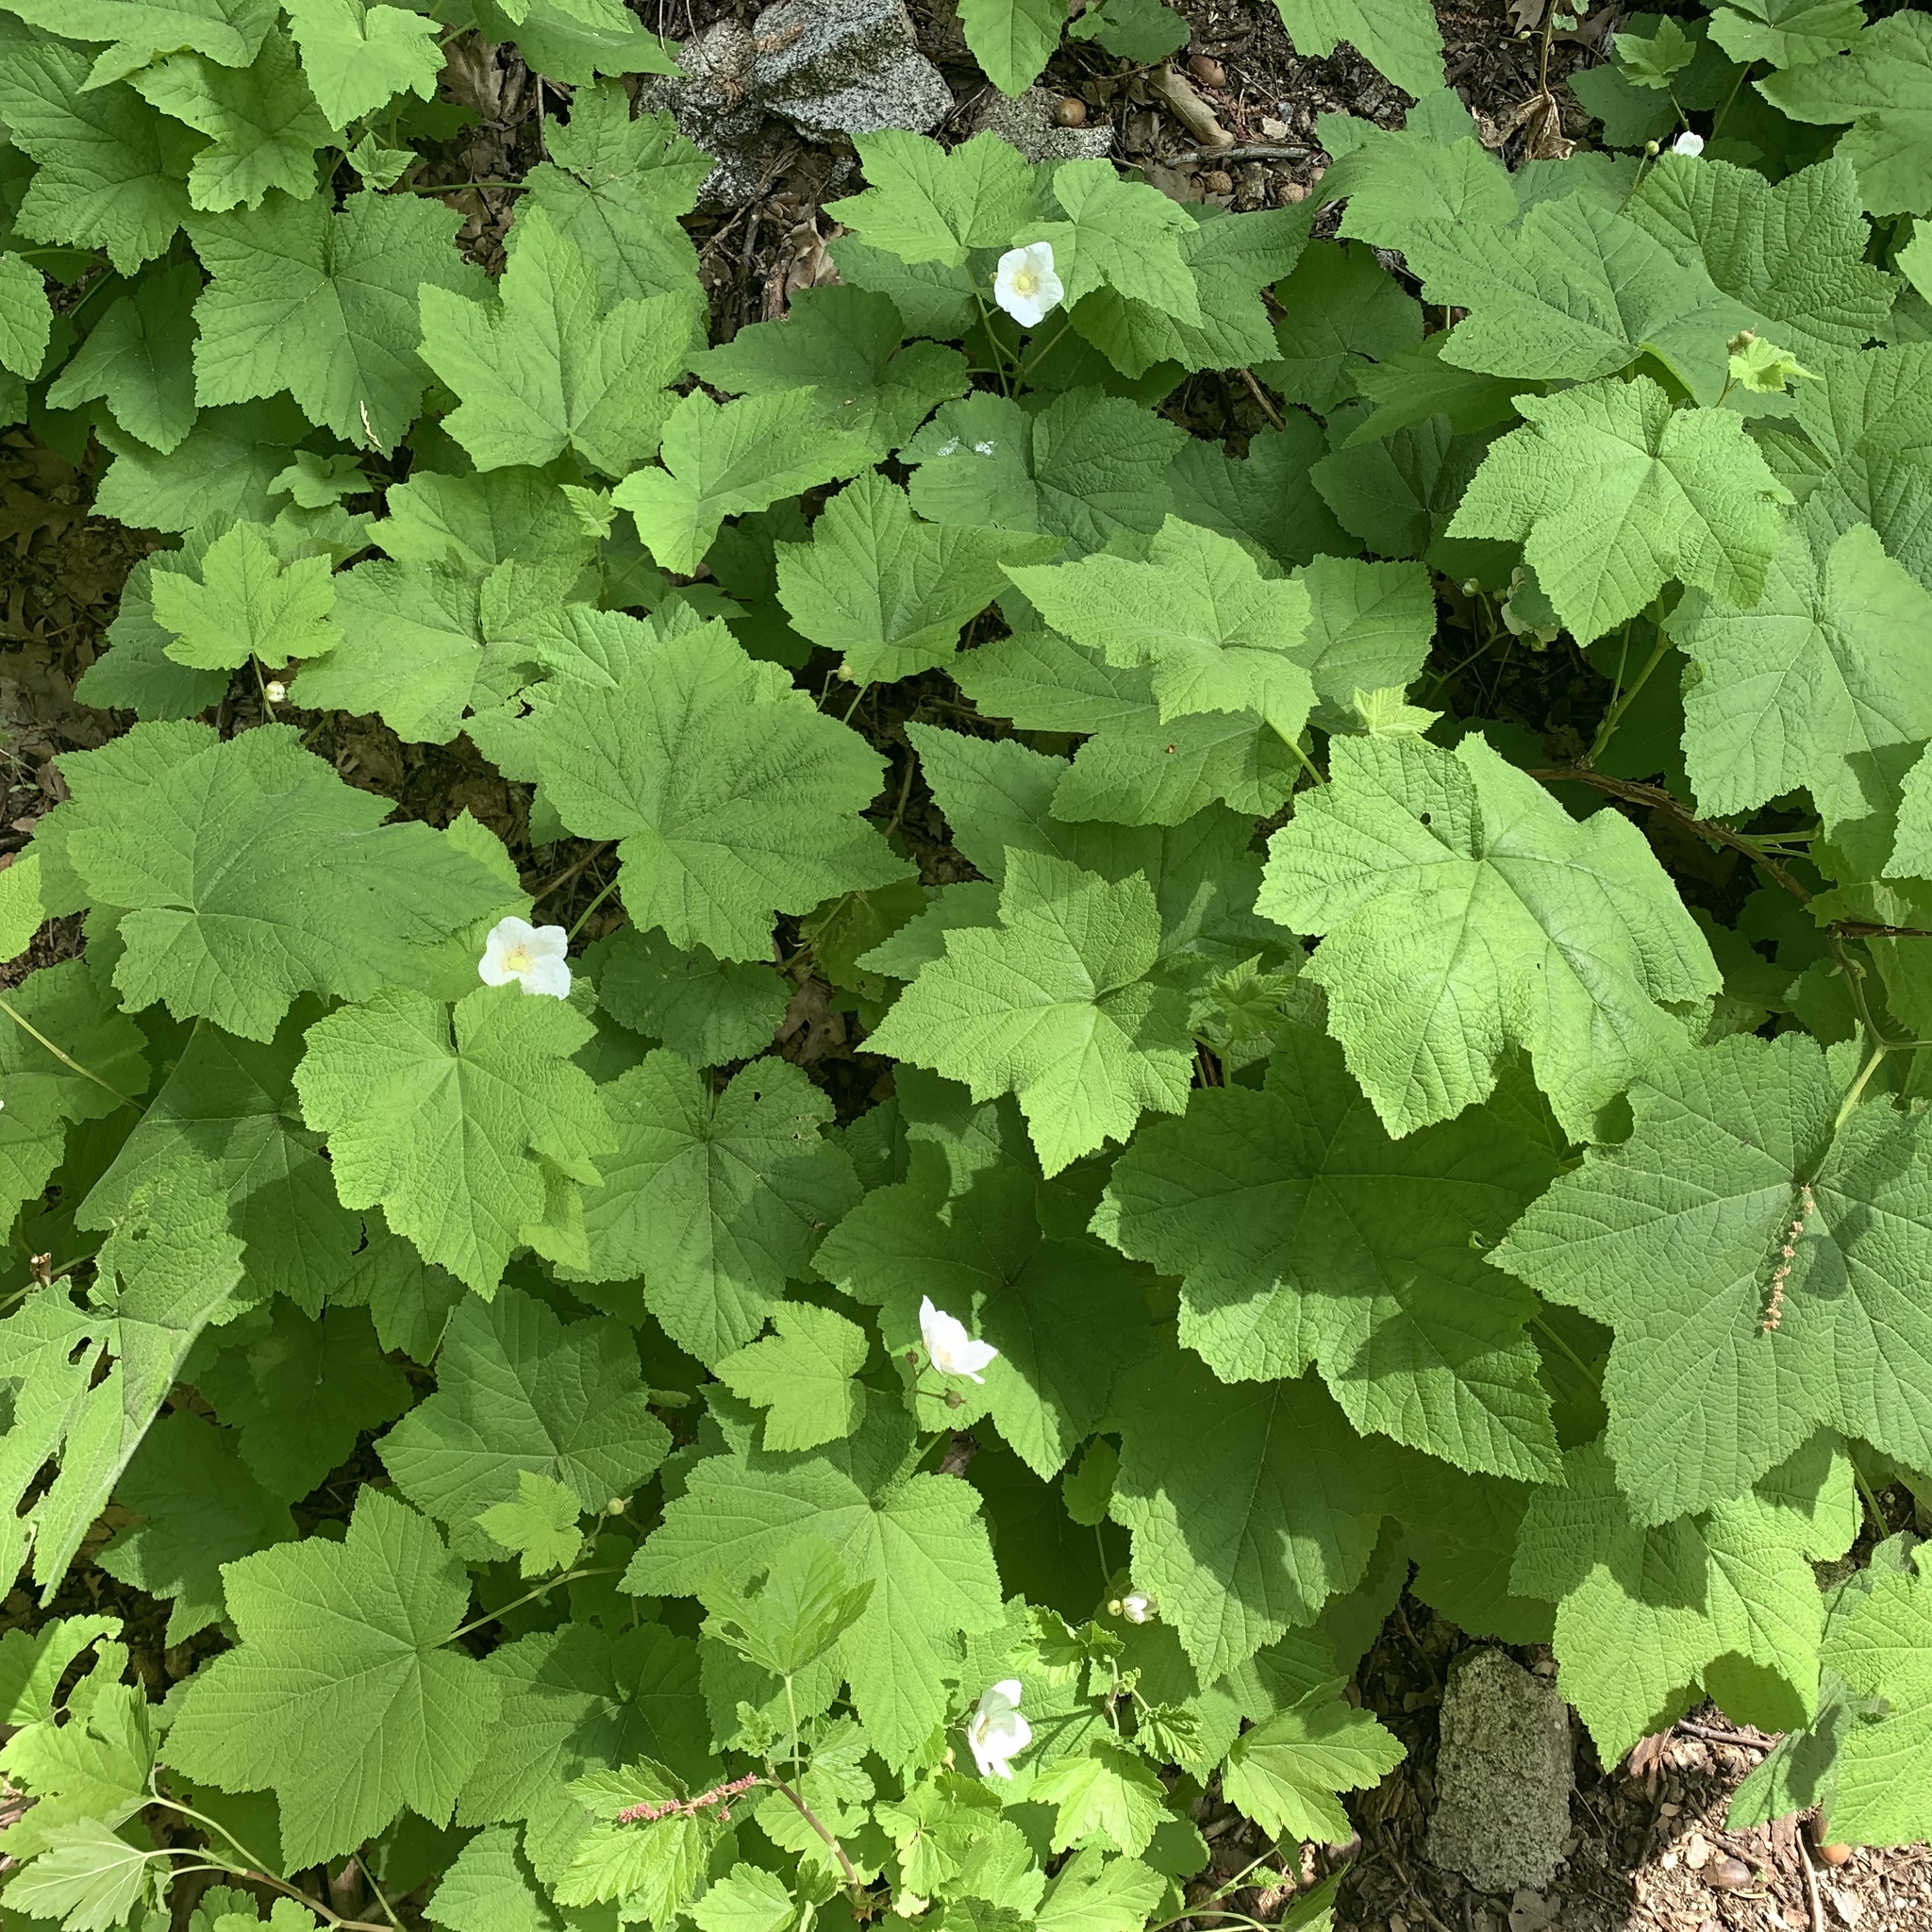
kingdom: Plantae
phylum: Tracheophyta
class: Magnoliopsida
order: Rosales
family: Rosaceae
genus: Rubus
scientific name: Rubus parviflorus
